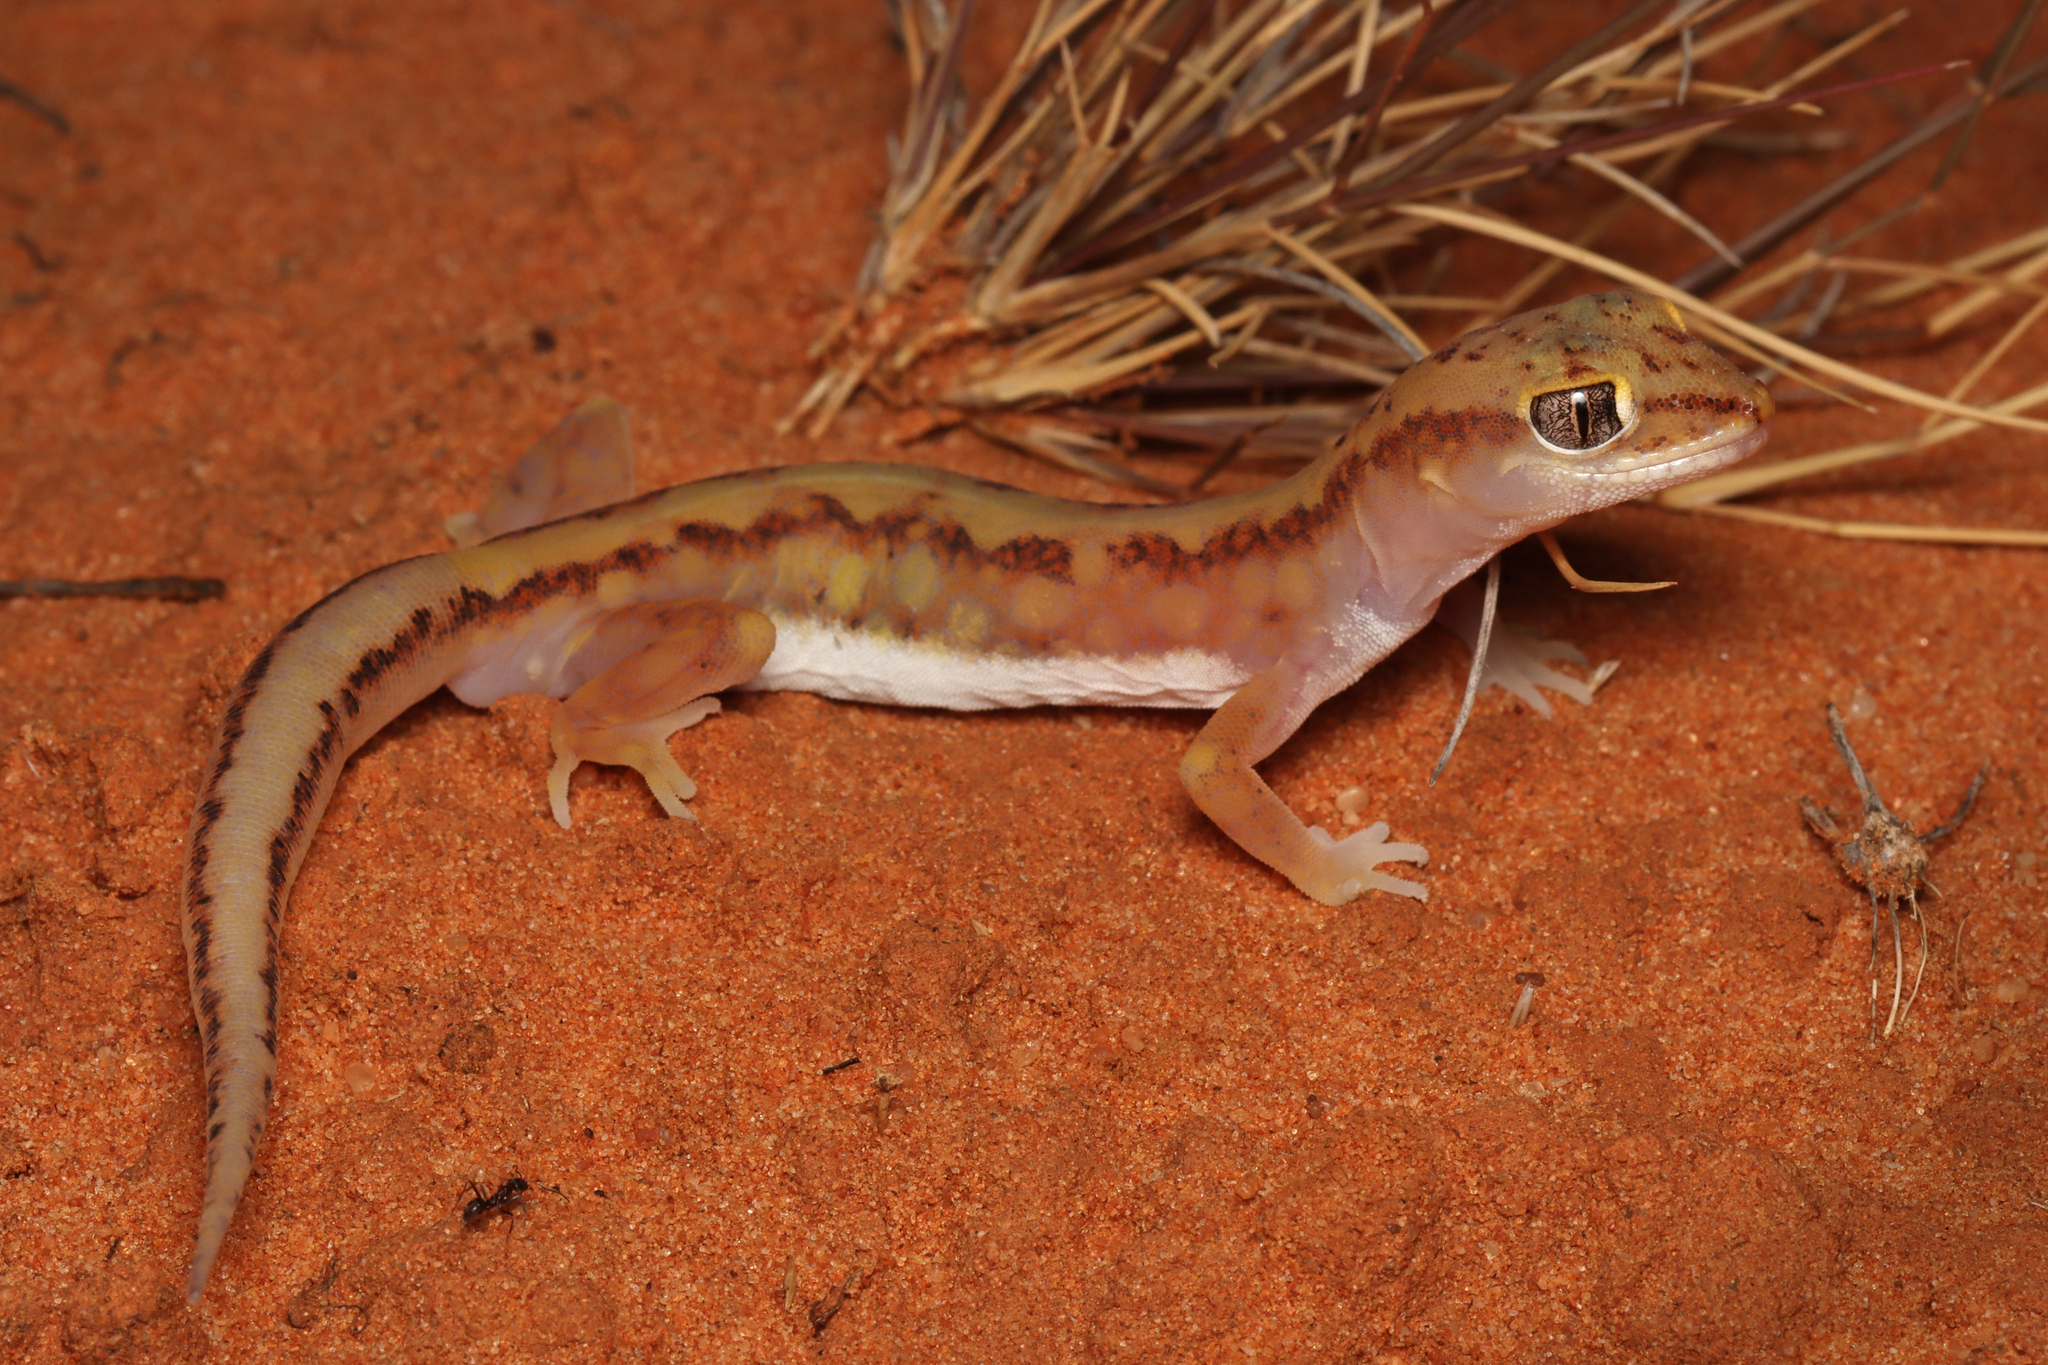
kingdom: Animalia
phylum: Chordata
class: Squamata
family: Diplodactylidae
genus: Lucasium
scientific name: Lucasium damaeum
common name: Beaded gecko
